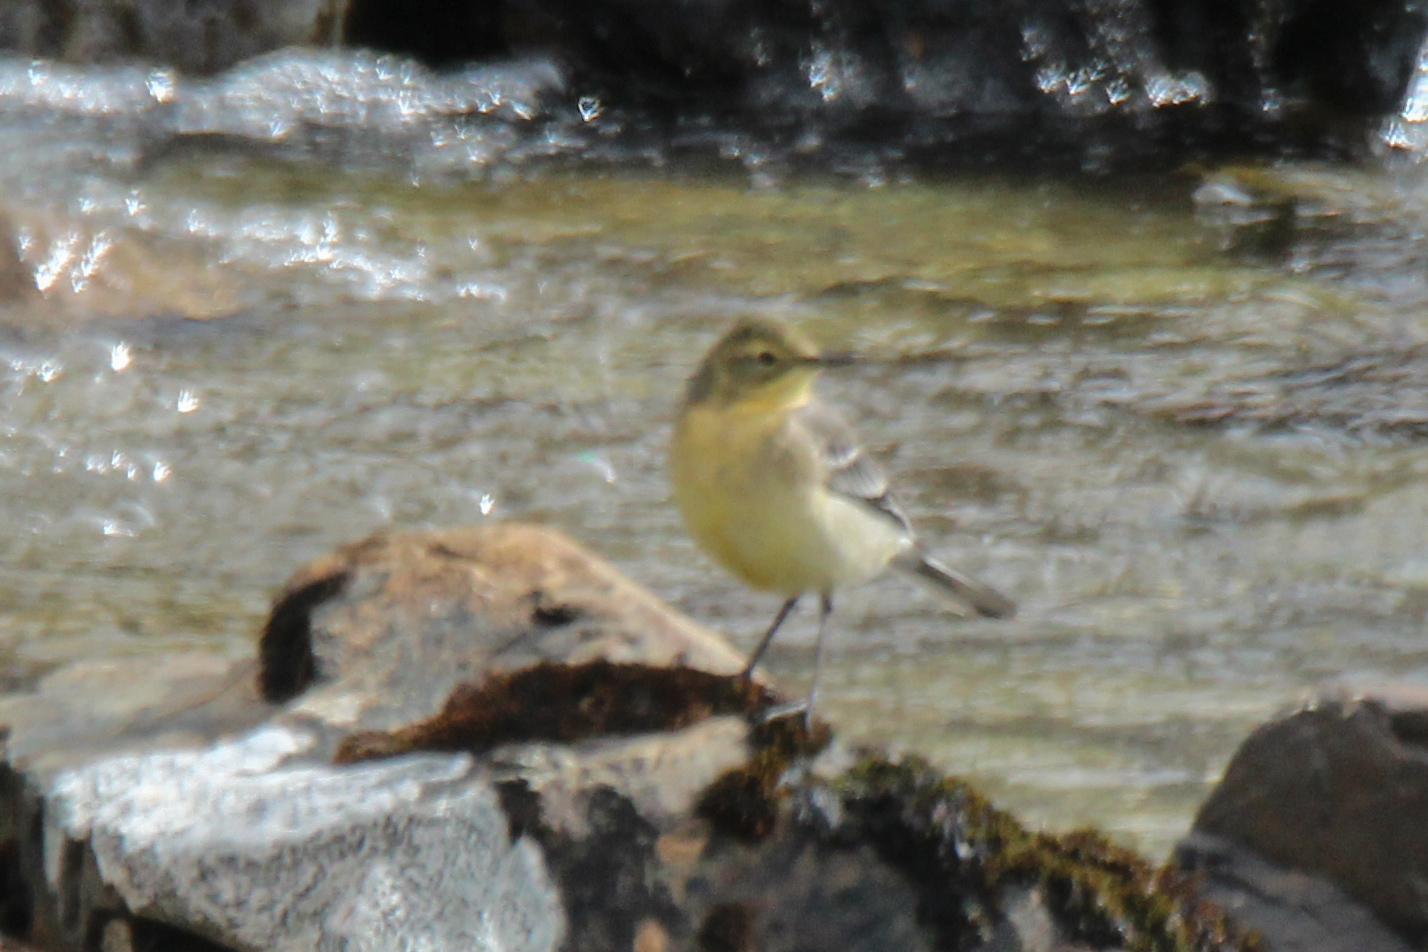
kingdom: Animalia
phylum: Chordata
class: Aves
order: Passeriformes
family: Motacillidae
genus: Motacilla
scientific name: Motacilla citreola
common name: Citrine wagtail
